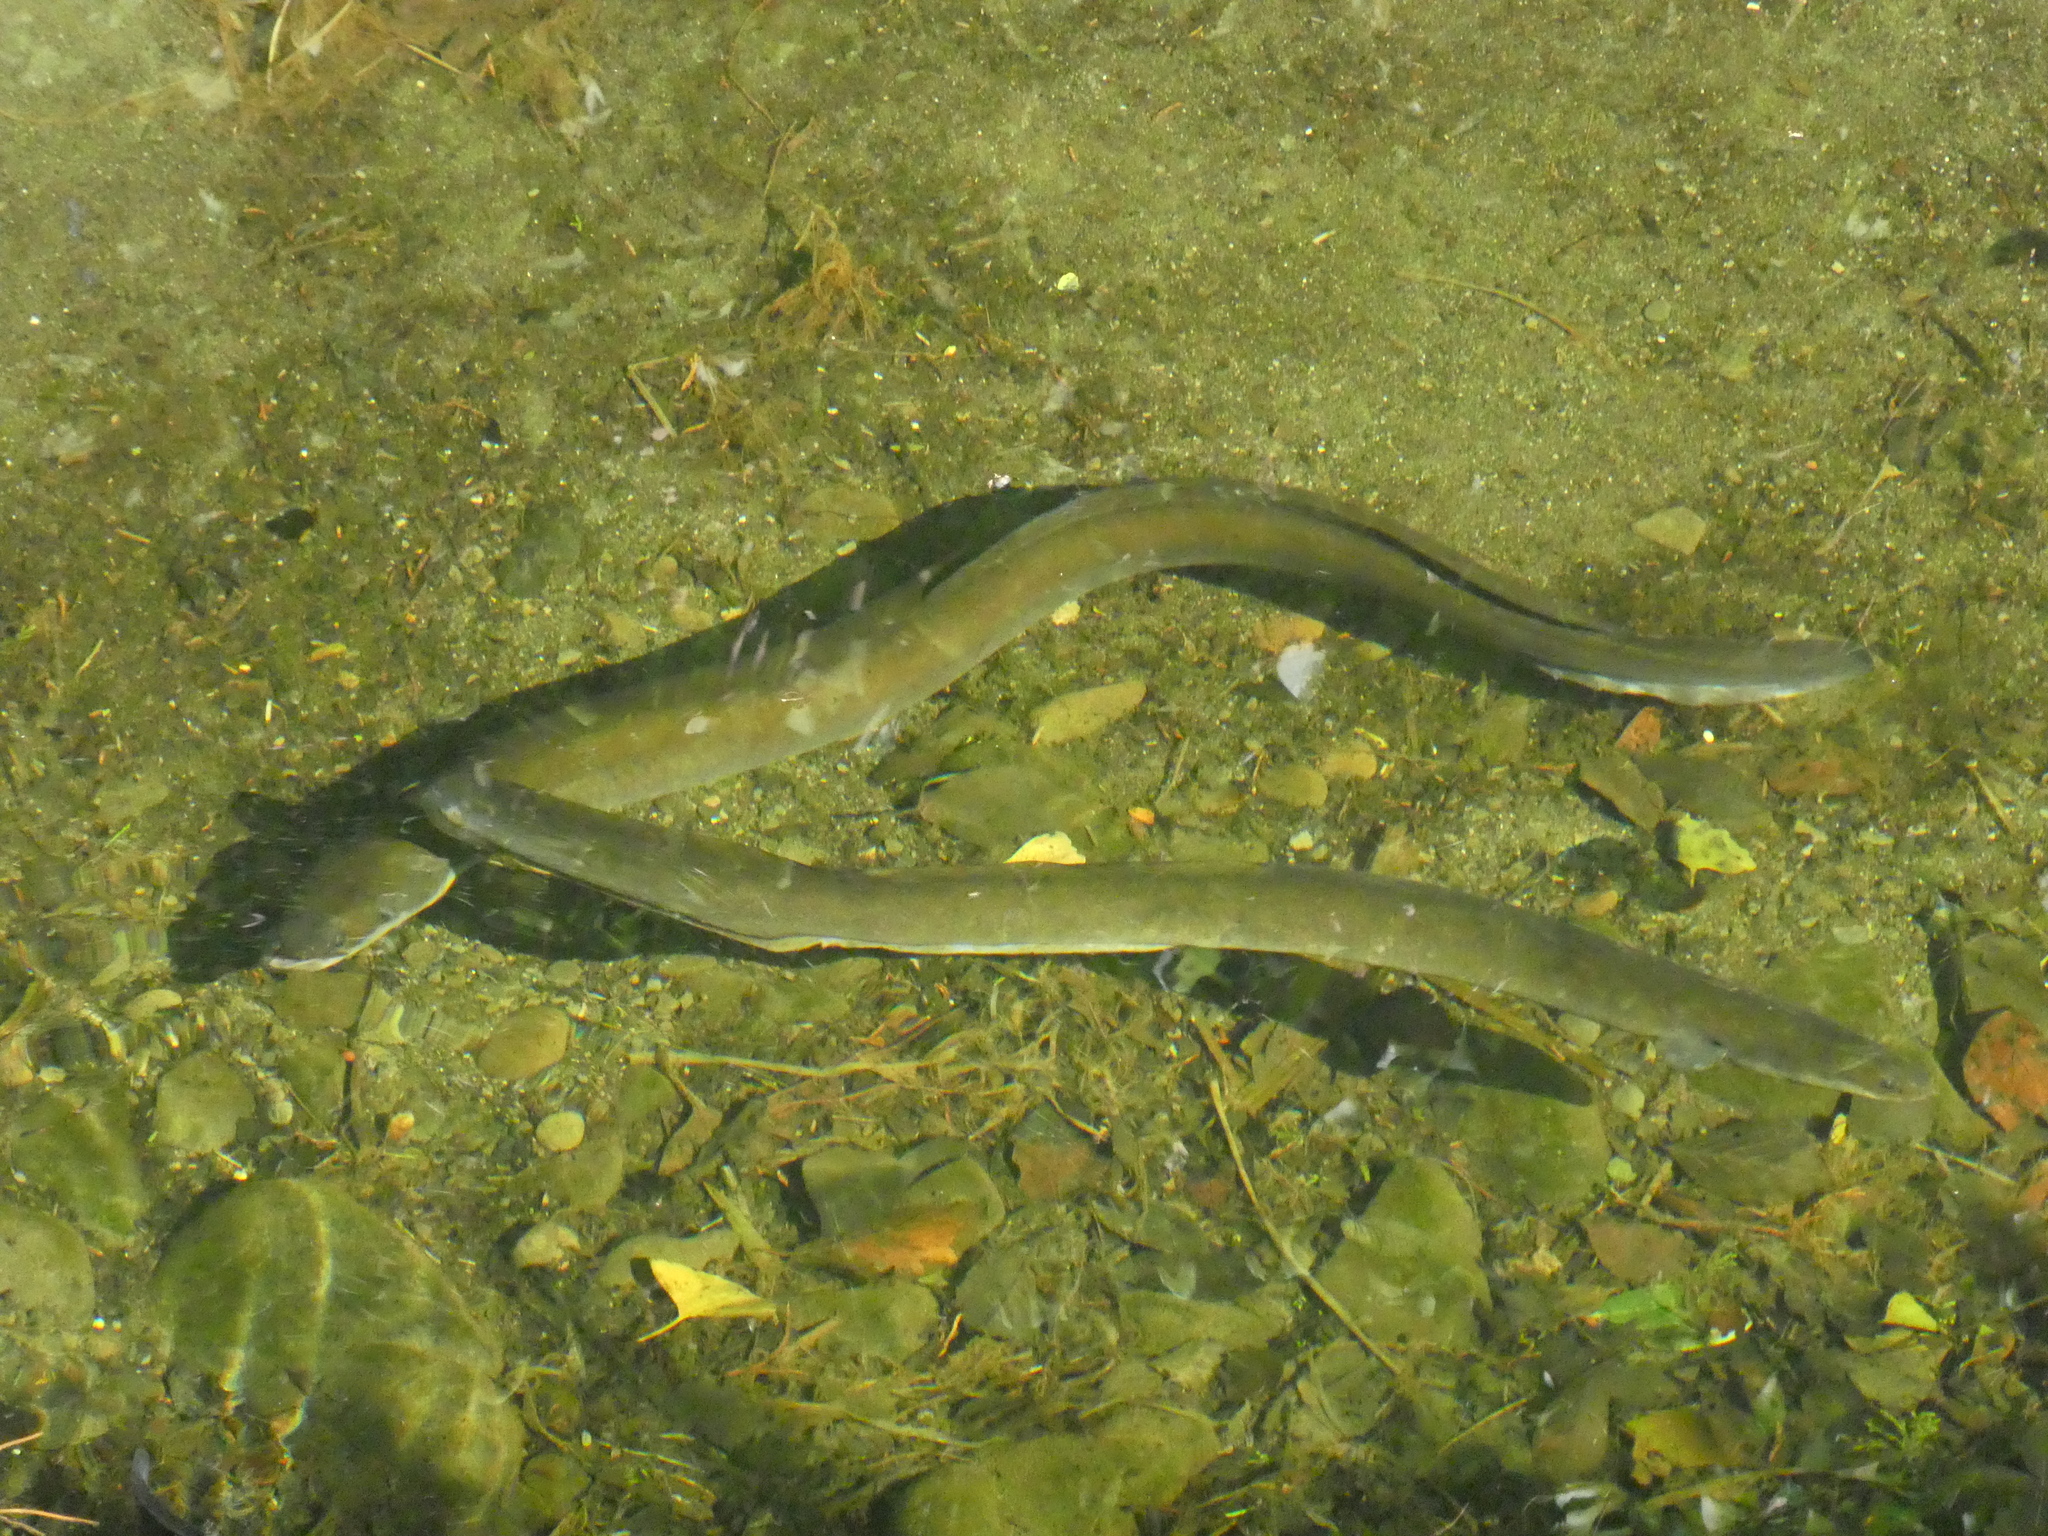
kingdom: Animalia
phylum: Chordata
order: Anguilliformes
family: Anguillidae
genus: Anguilla
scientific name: Anguilla australis
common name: Shortfin eel
